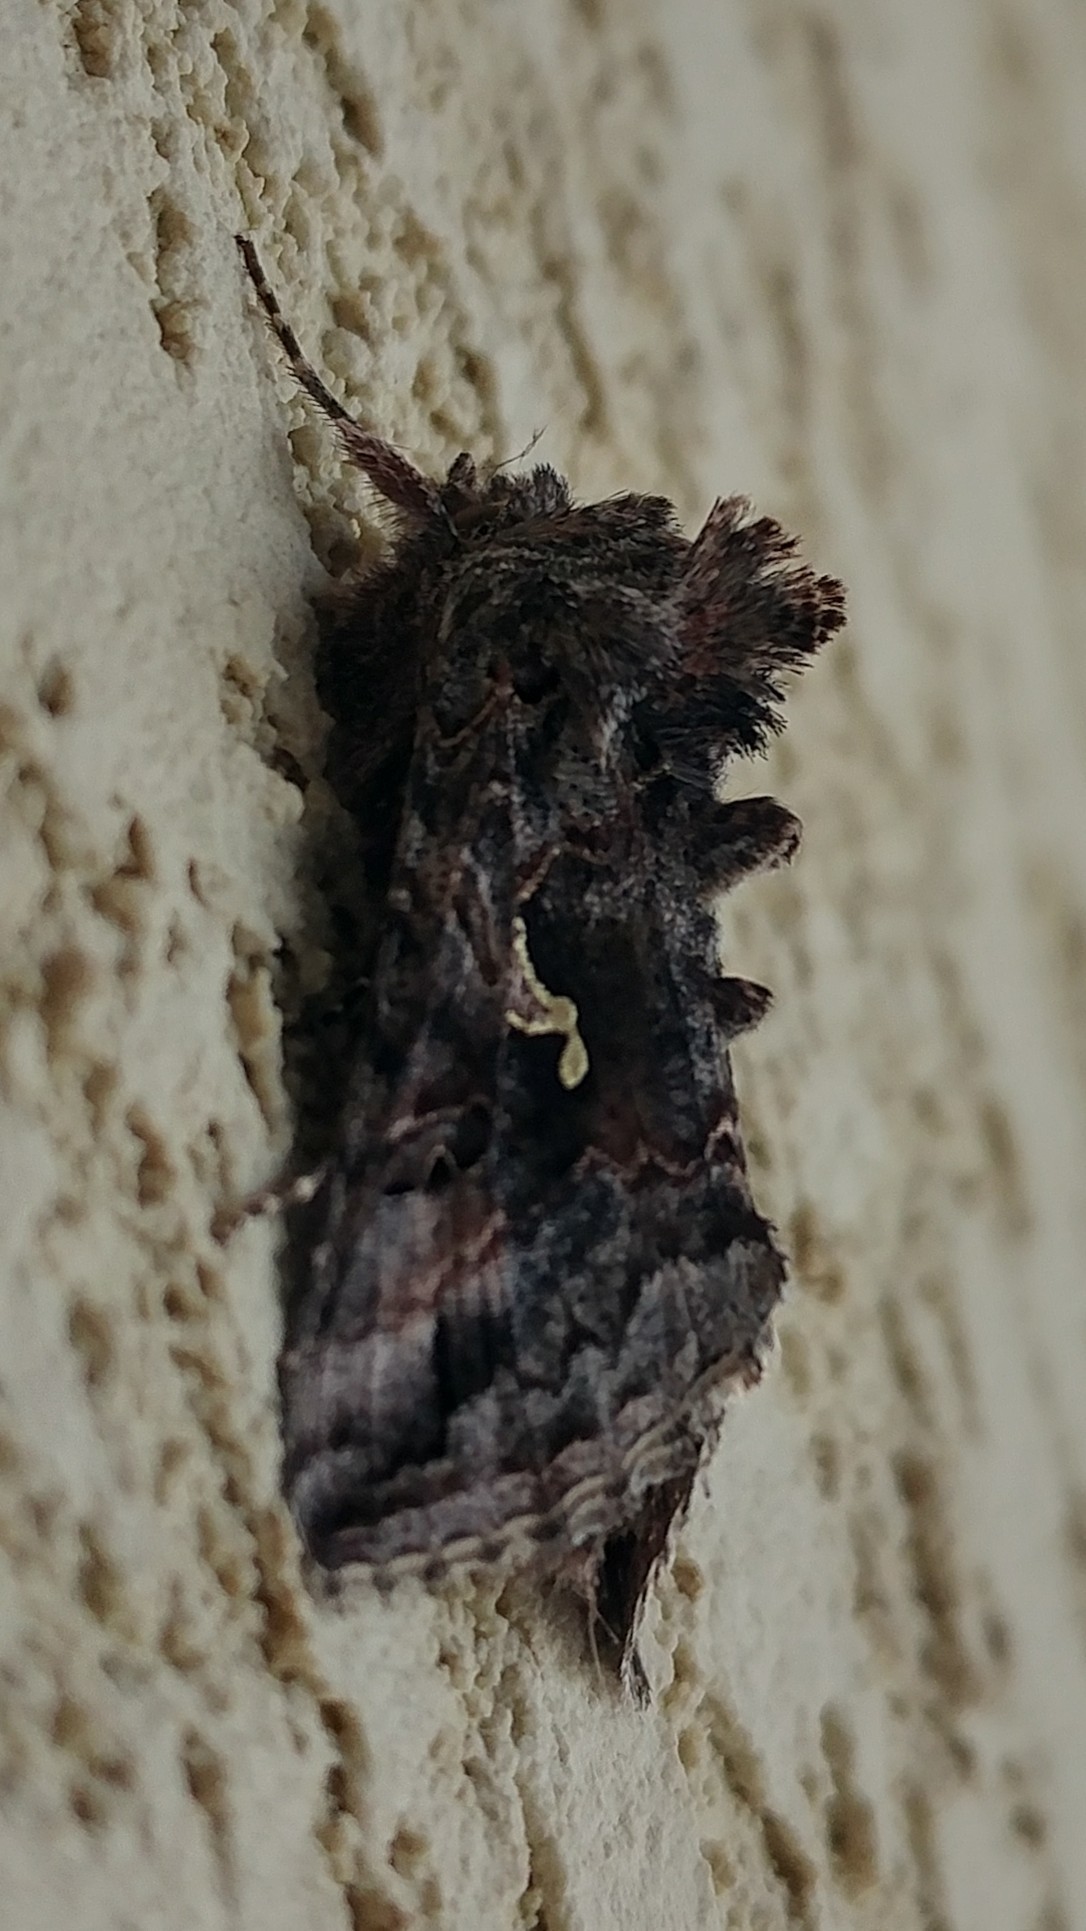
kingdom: Animalia
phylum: Arthropoda
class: Insecta
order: Lepidoptera
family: Noctuidae
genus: Autographa
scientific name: Autographa californica
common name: Alfalfa looper
